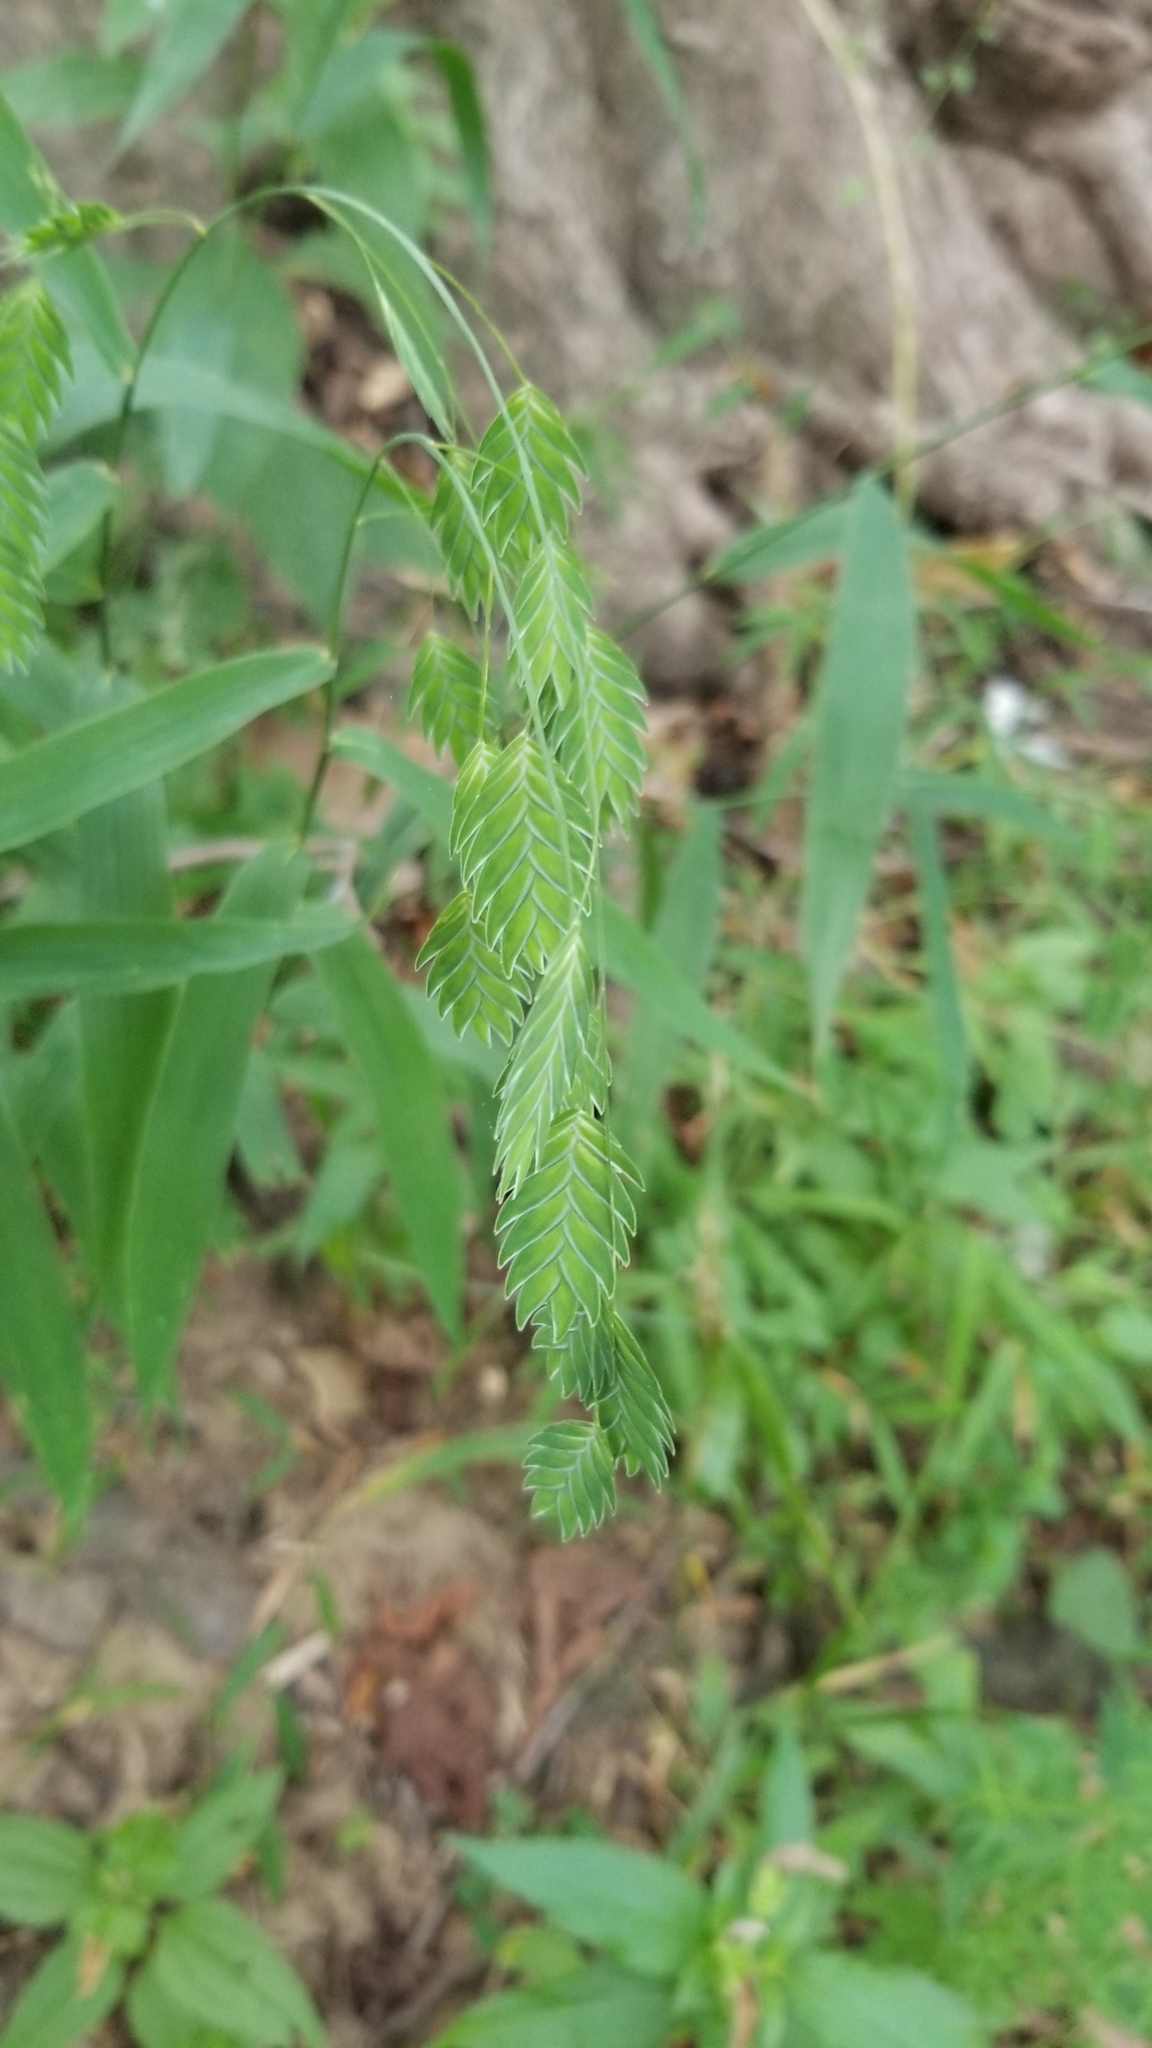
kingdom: Plantae
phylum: Tracheophyta
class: Liliopsida
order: Poales
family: Poaceae
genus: Chasmanthium
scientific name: Chasmanthium latifolium
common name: Broad-leaved chasmanthium
